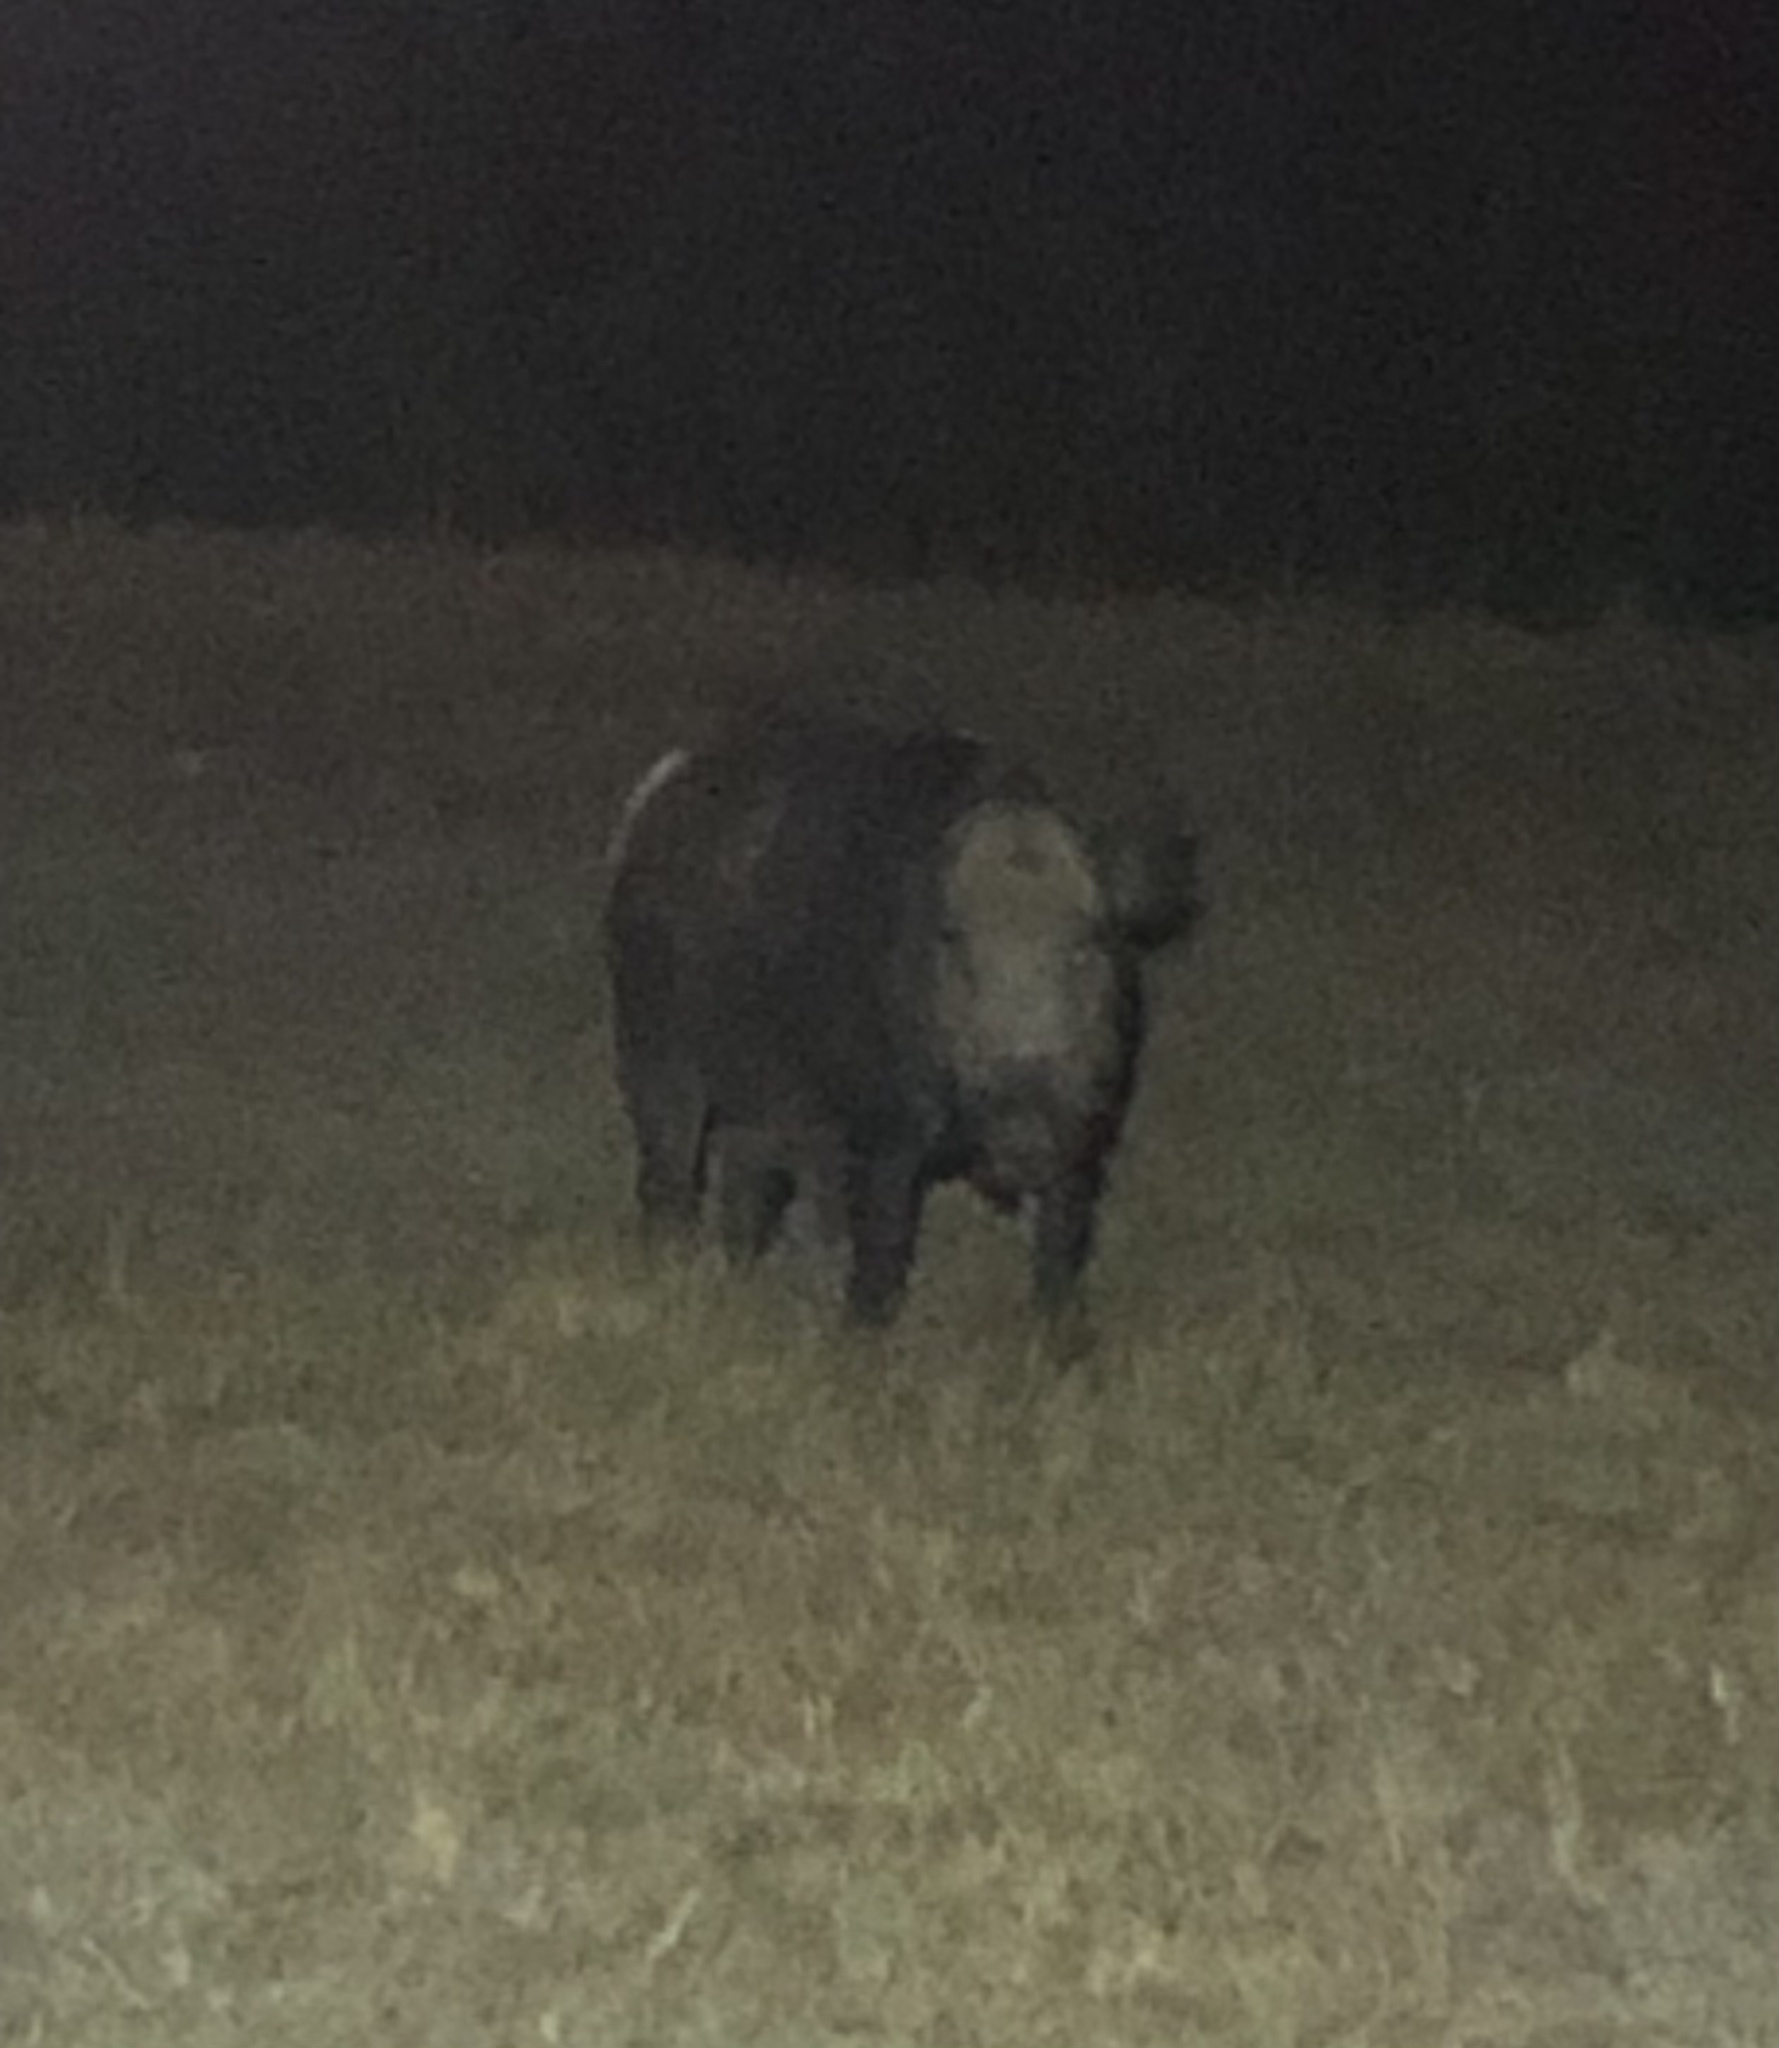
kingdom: Animalia
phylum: Chordata
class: Mammalia
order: Artiodactyla
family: Suidae
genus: Sus
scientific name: Sus scrofa
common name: Wild boar
